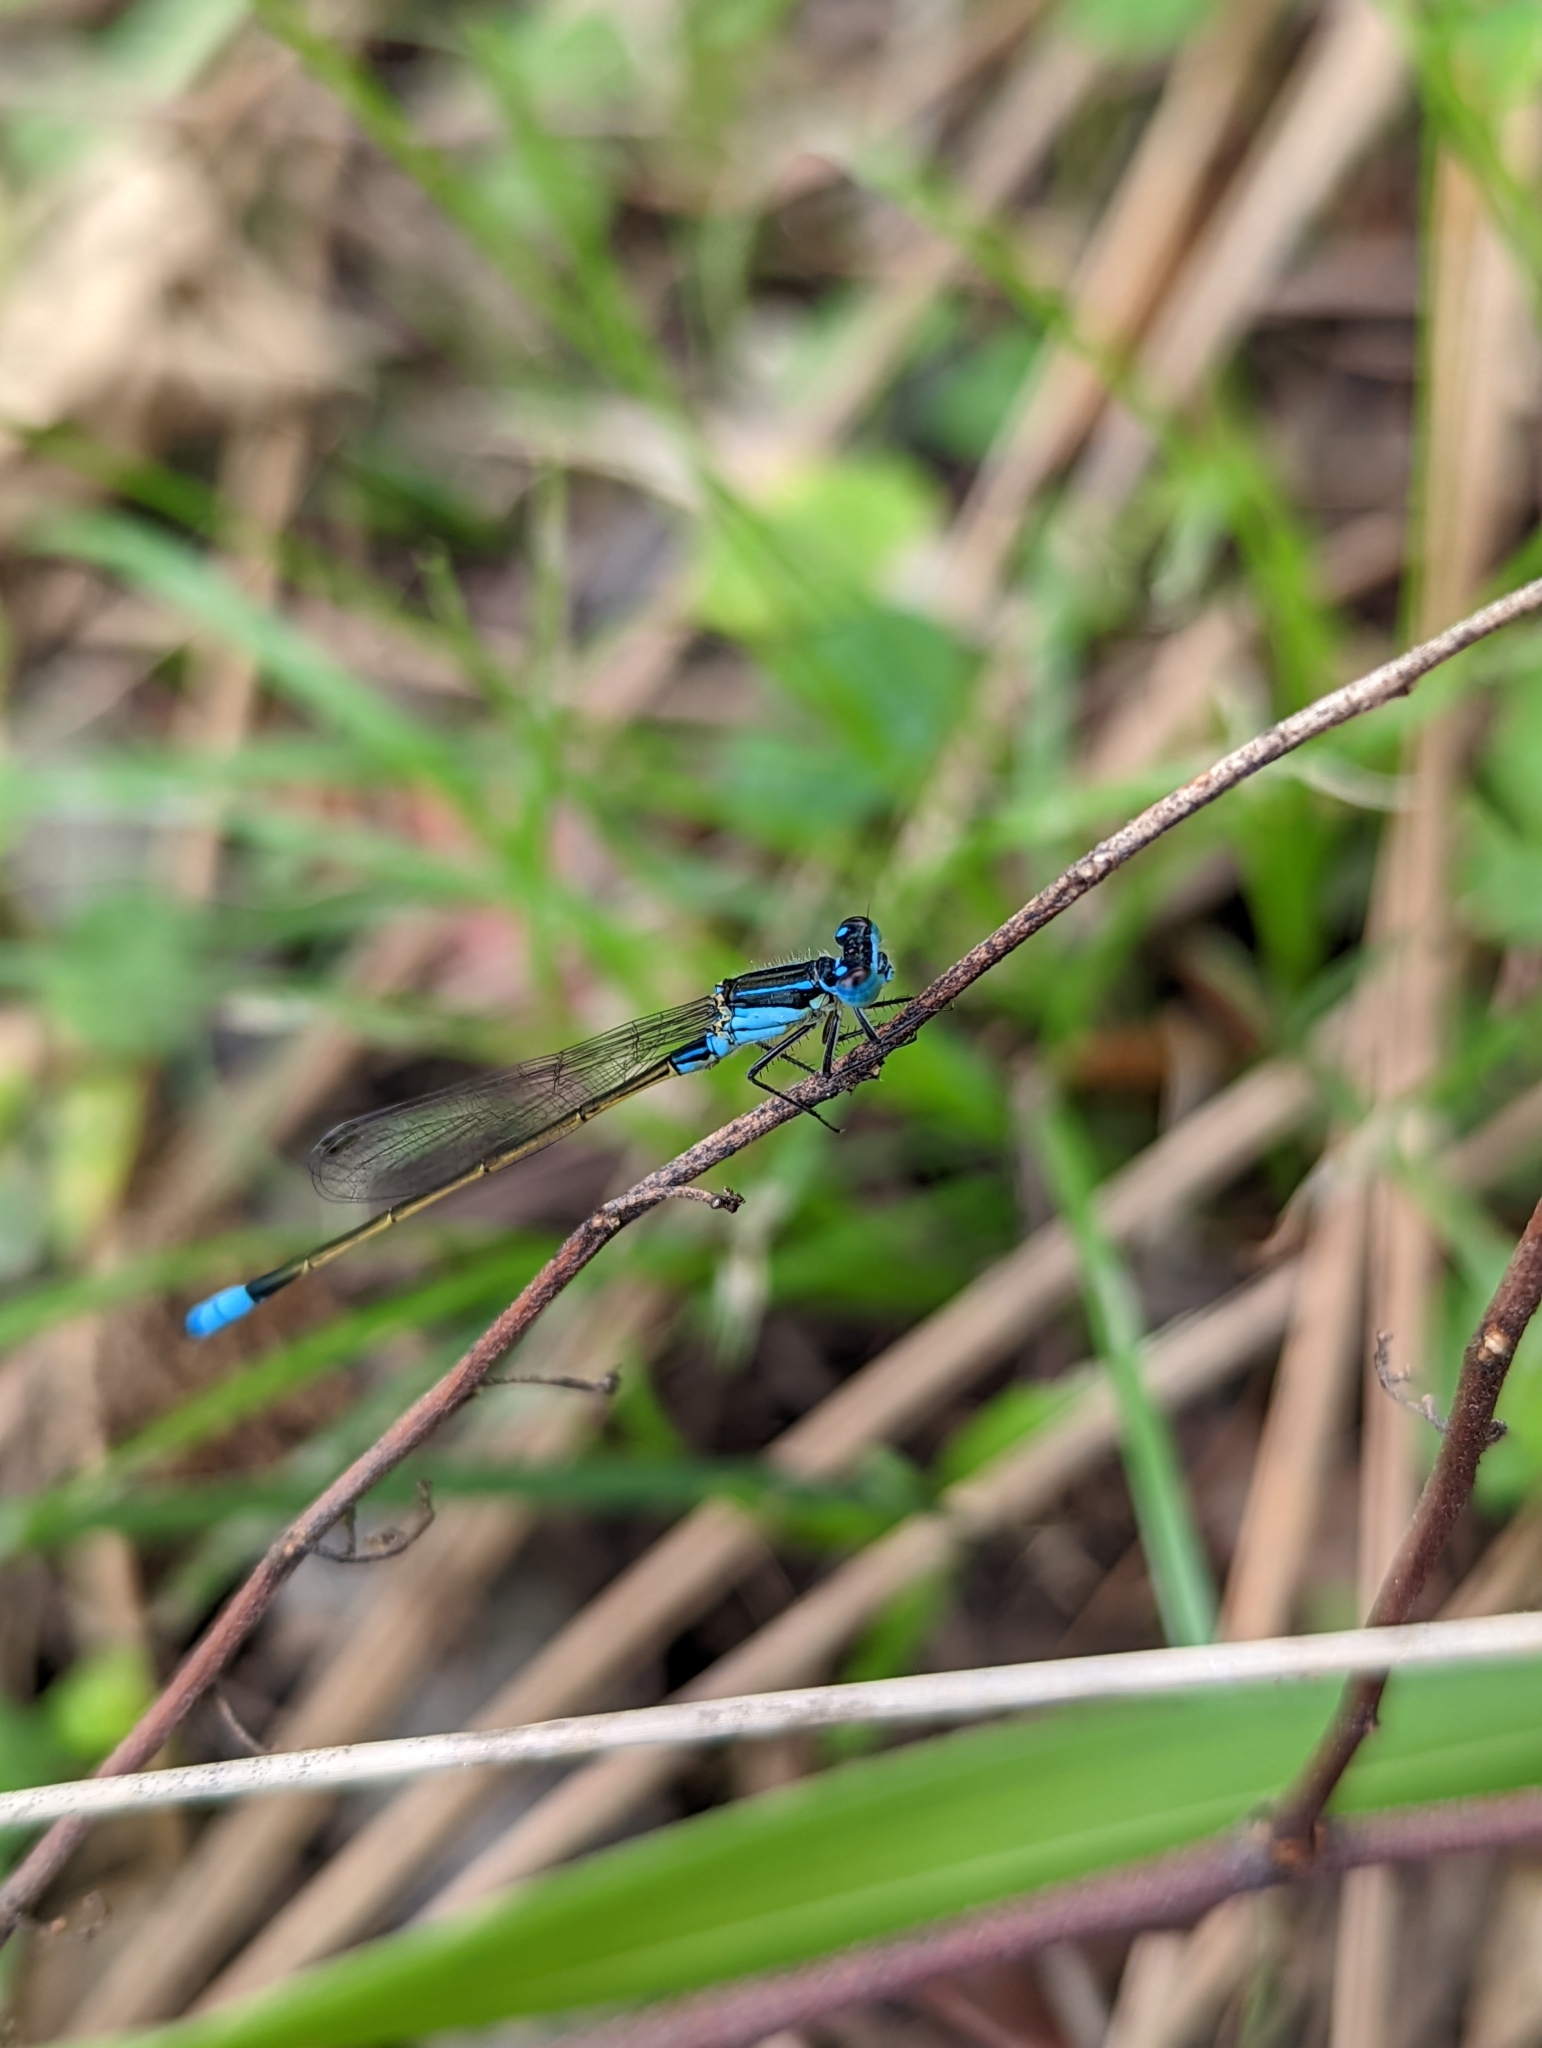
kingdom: Animalia
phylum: Arthropoda
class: Insecta
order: Odonata
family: Coenagrionidae
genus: Ischnura
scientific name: Ischnura heterosticta
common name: Common bluetail
